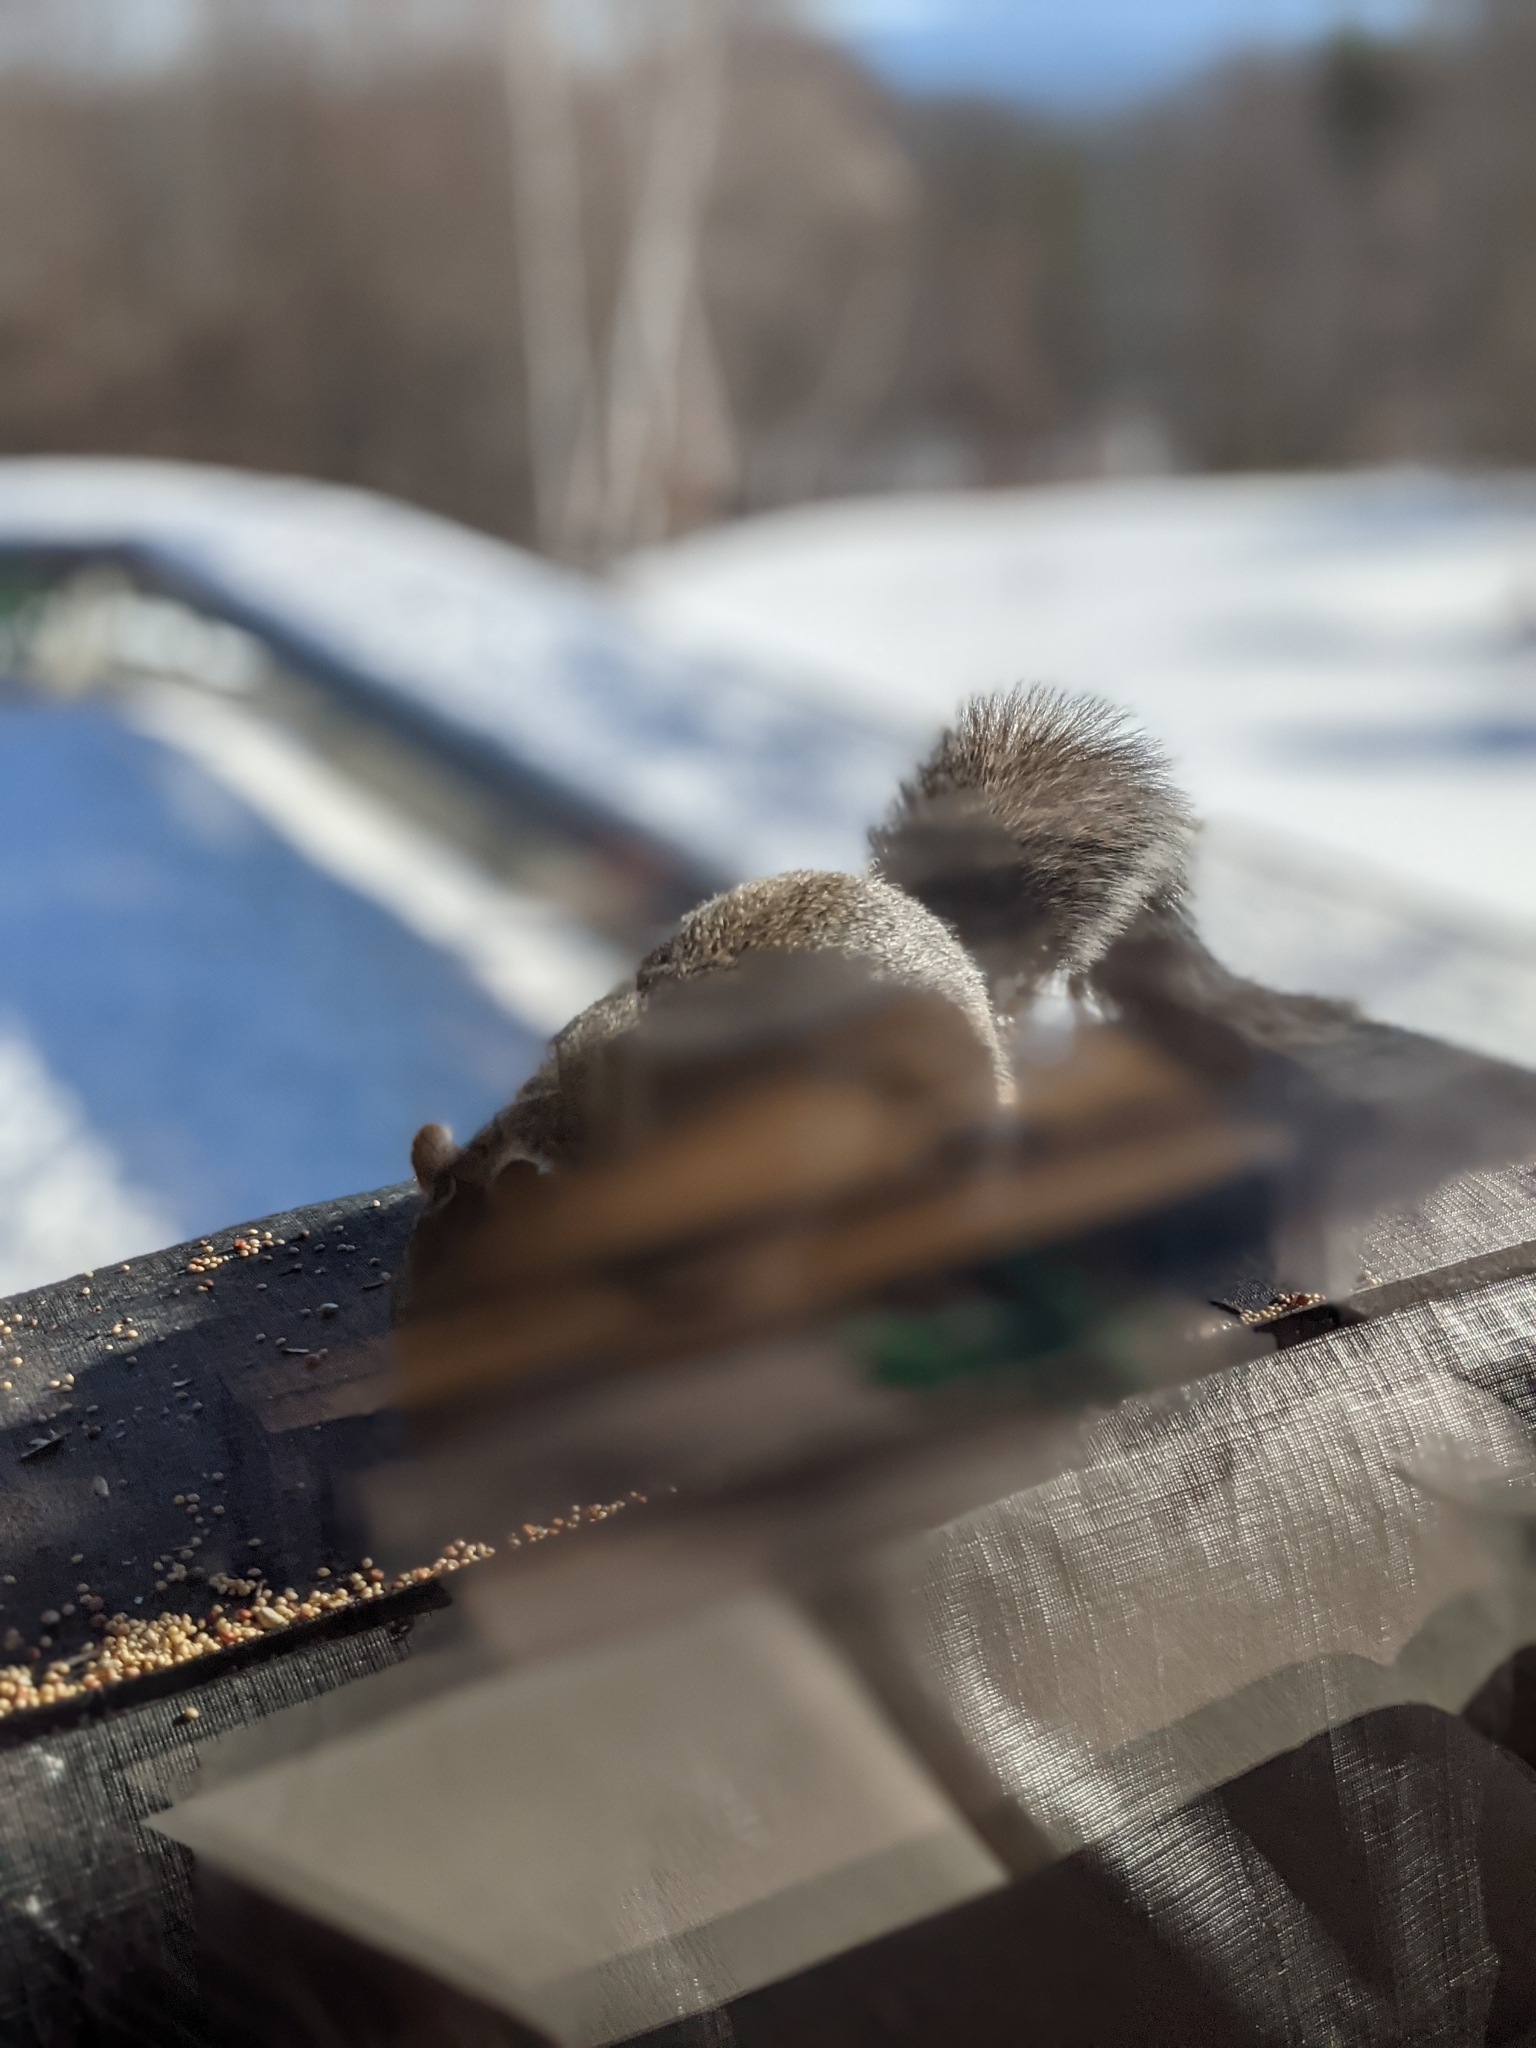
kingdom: Animalia
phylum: Chordata
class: Mammalia
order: Rodentia
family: Sciuridae
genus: Sciurus
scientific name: Sciurus carolinensis
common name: Eastern gray squirrel
